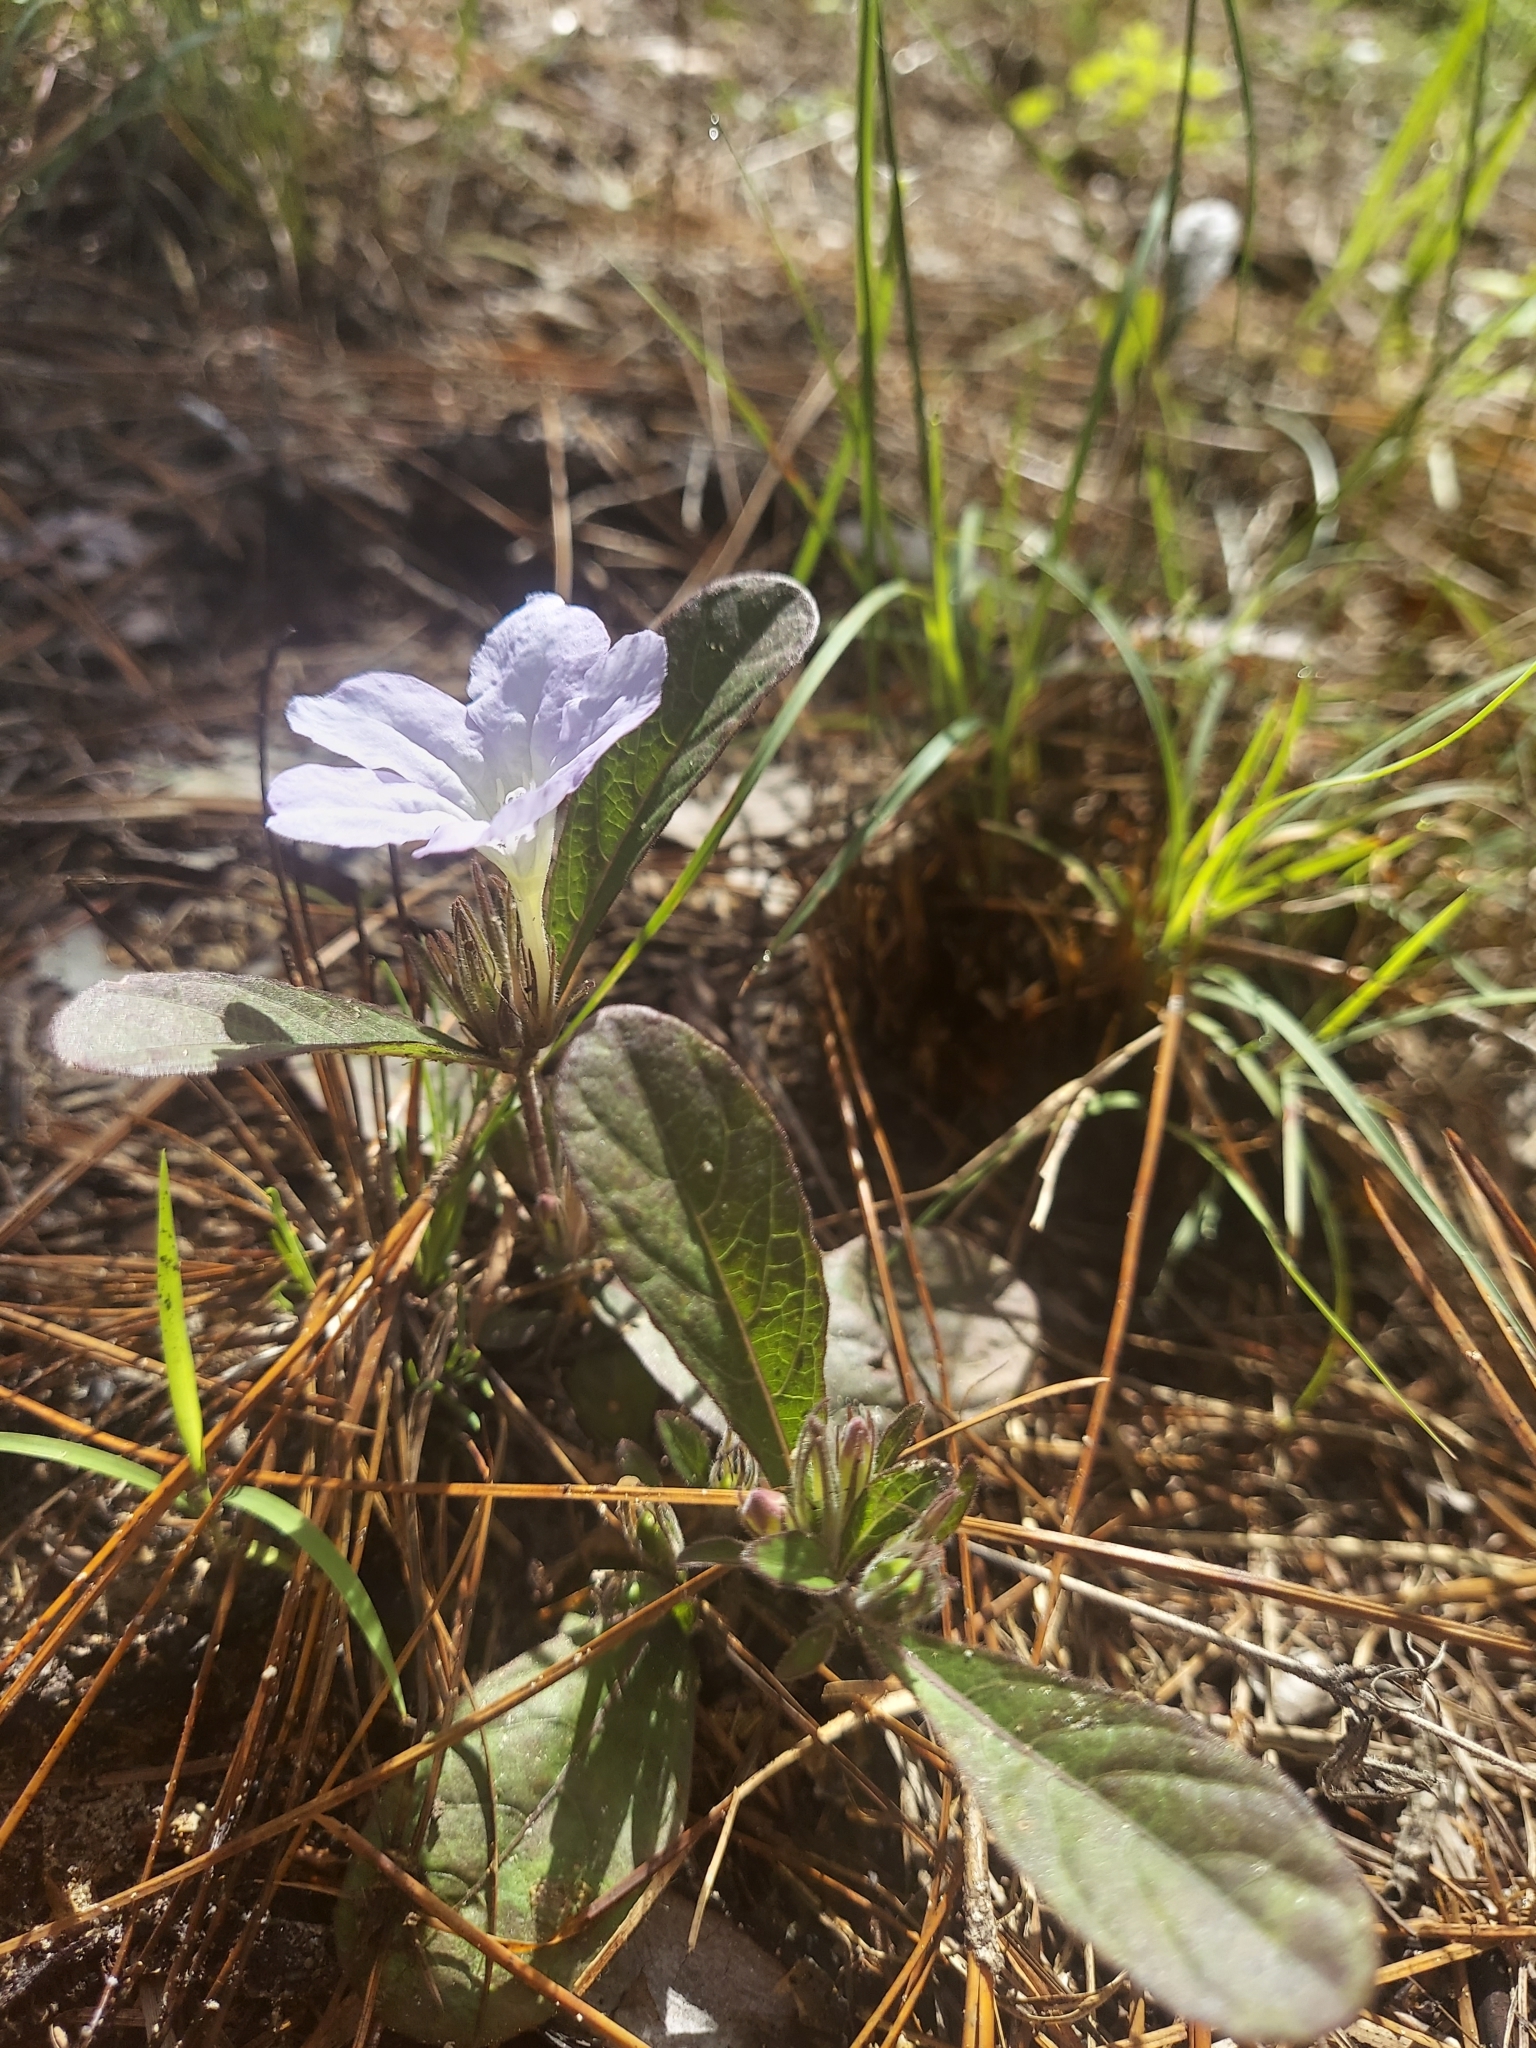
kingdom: Plantae
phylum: Tracheophyta
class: Magnoliopsida
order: Lamiales
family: Acanthaceae
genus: Ruellia
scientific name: Ruellia caroliniensis
